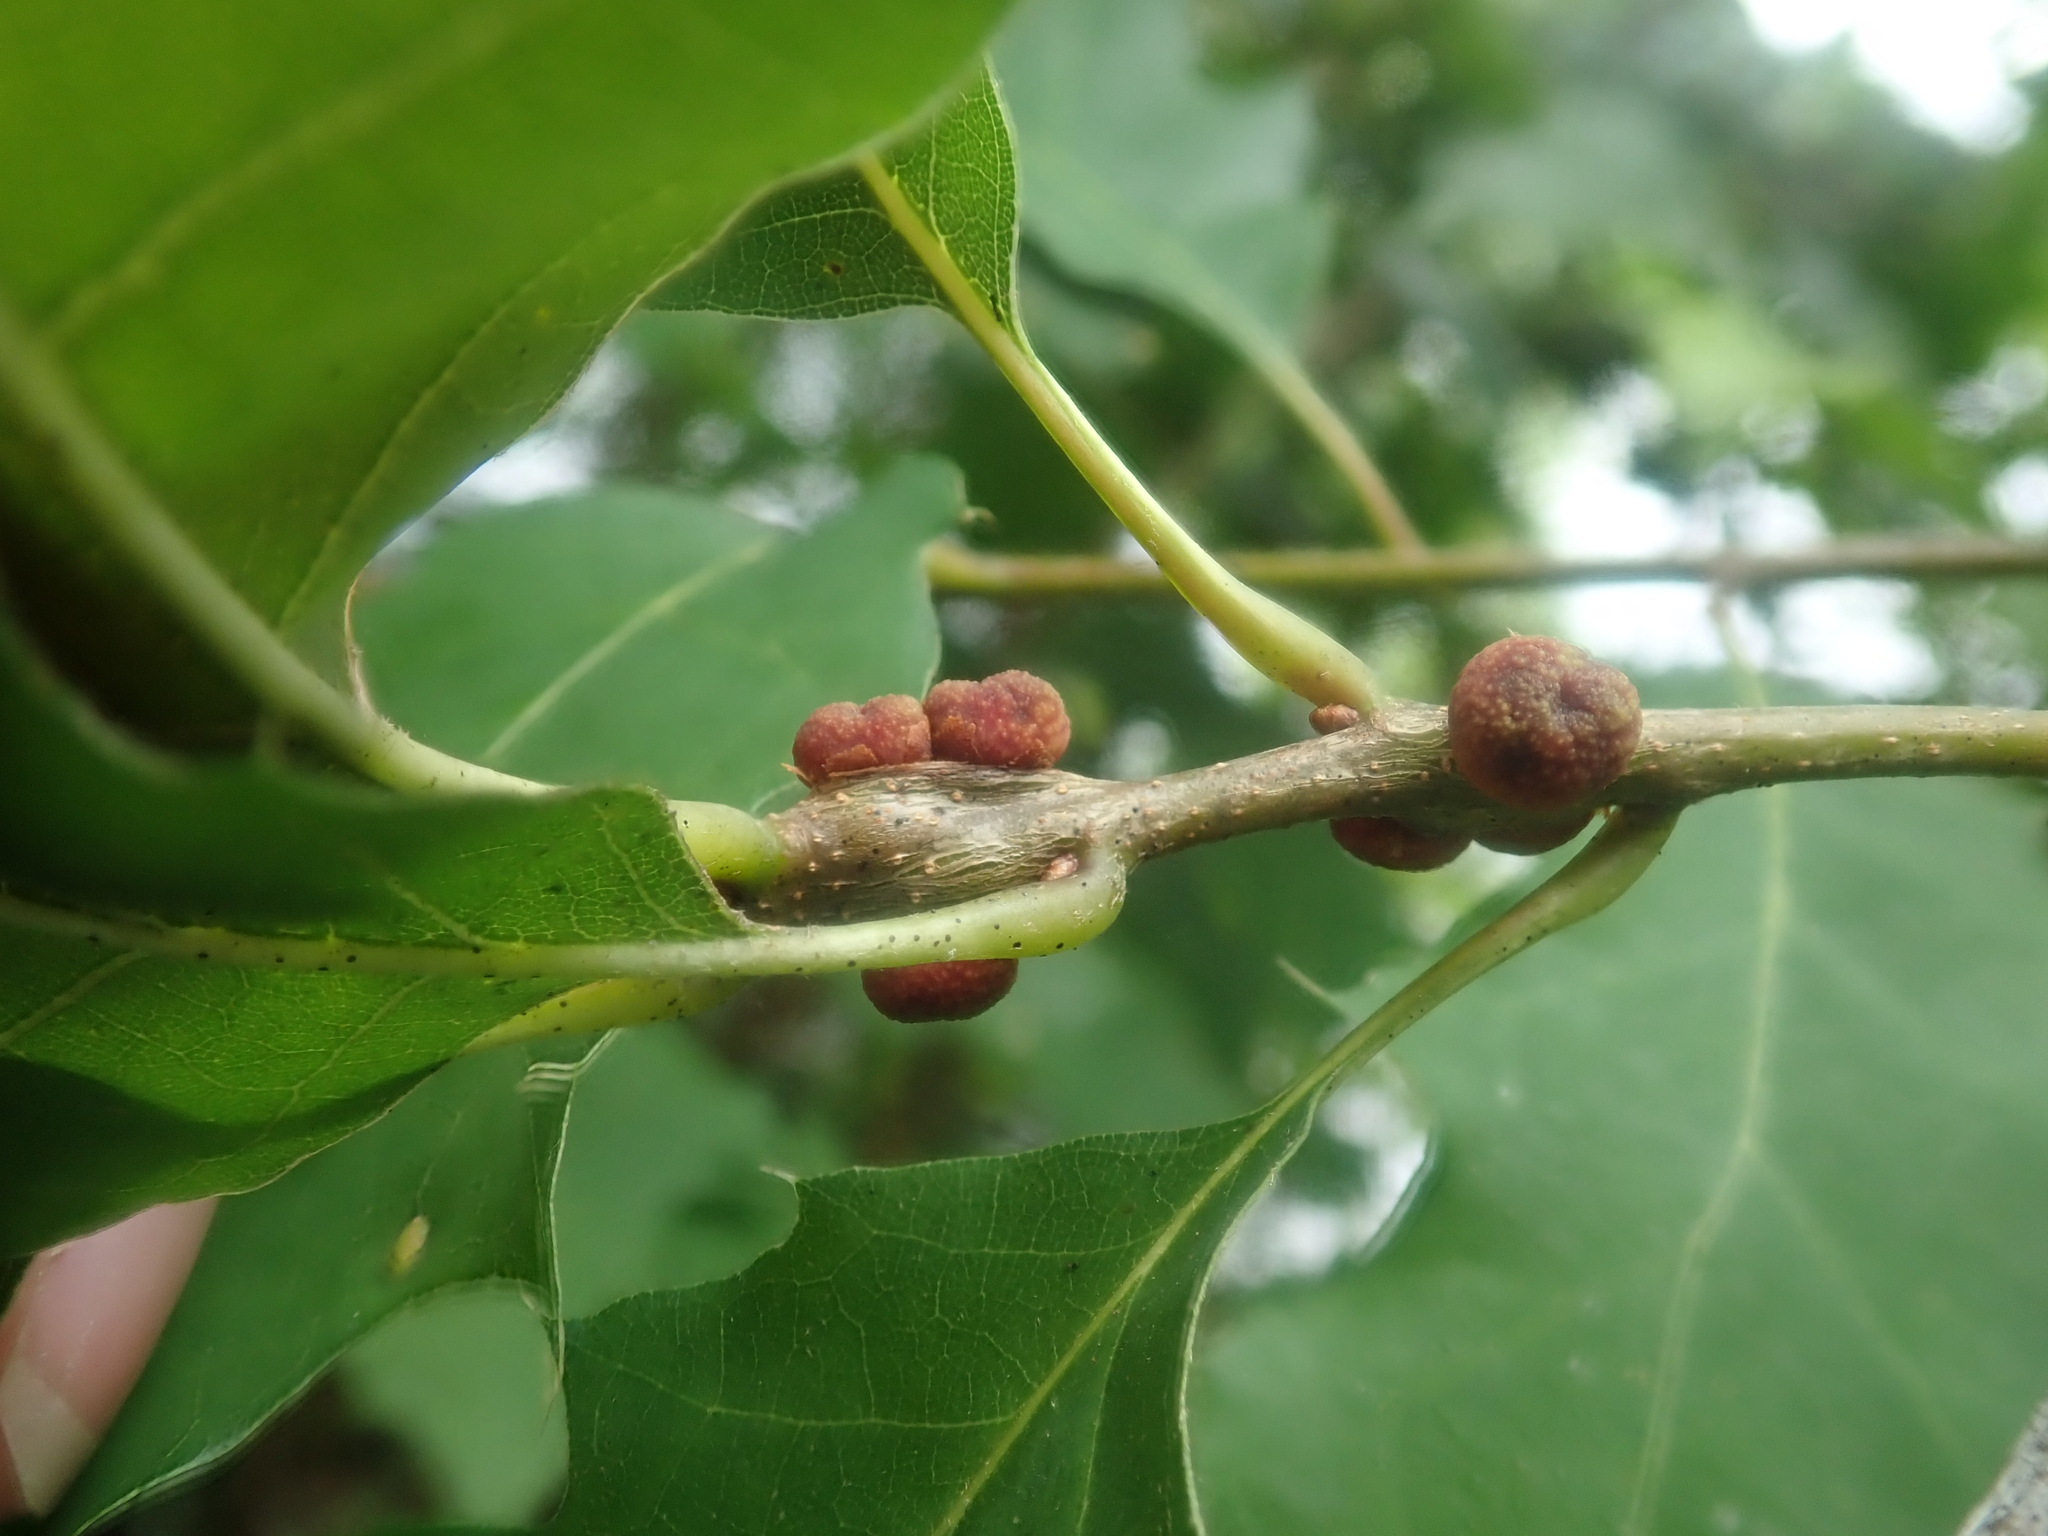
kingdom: Animalia
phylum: Arthropoda
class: Insecta
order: Hymenoptera
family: Cynipidae
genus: Kokkocynips
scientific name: Kokkocynips imbricariae
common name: Banded bullet gall wasp
